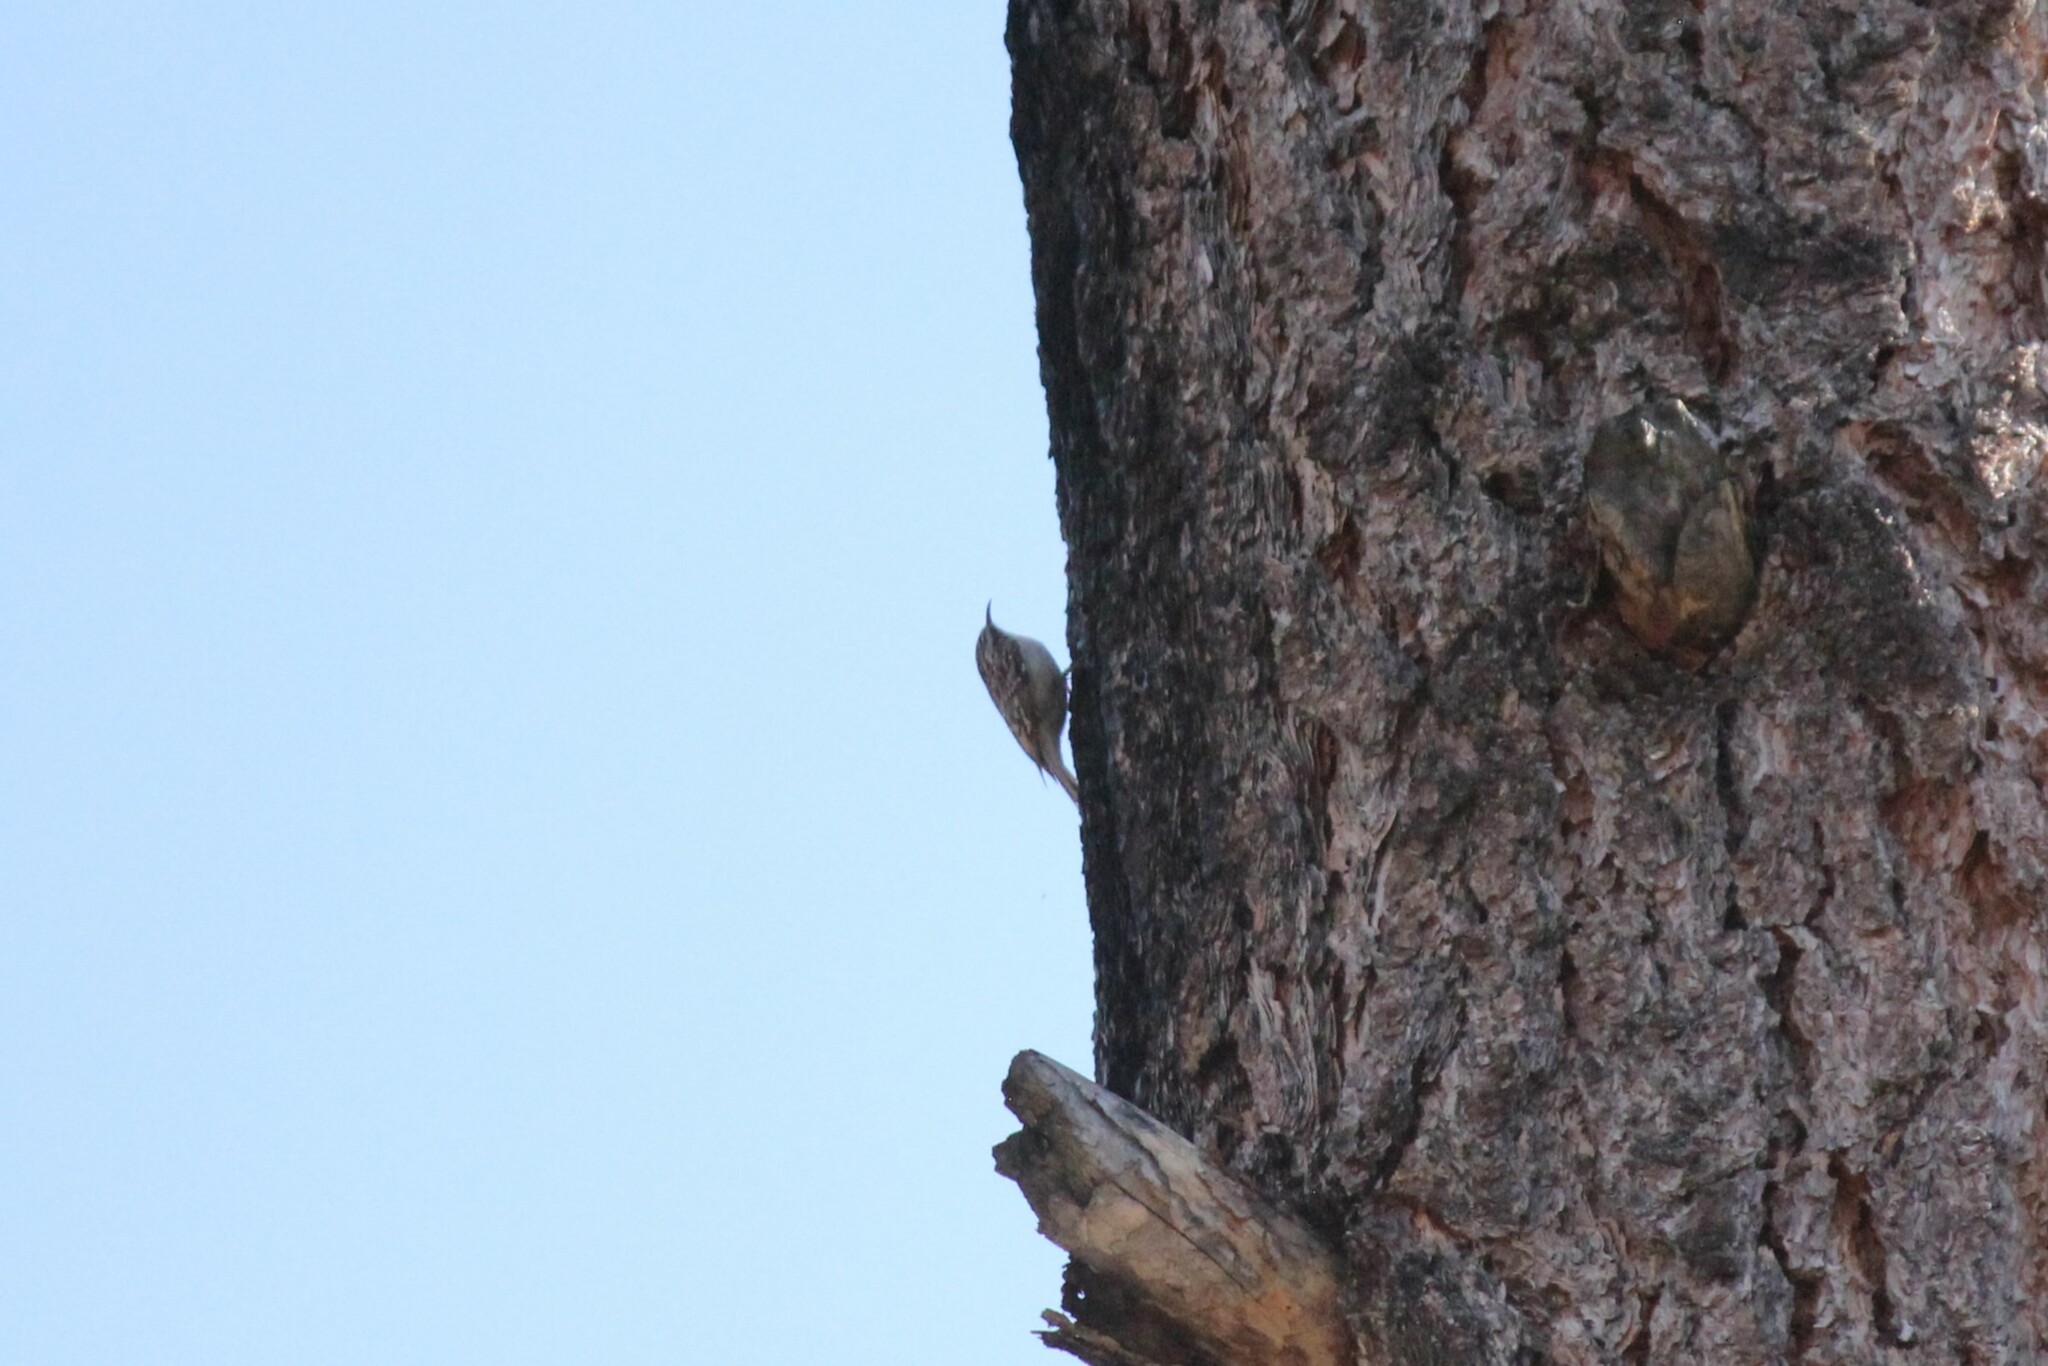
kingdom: Animalia
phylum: Chordata
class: Aves
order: Passeriformes
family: Certhiidae
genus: Certhia
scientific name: Certhia americana
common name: Brown creeper
